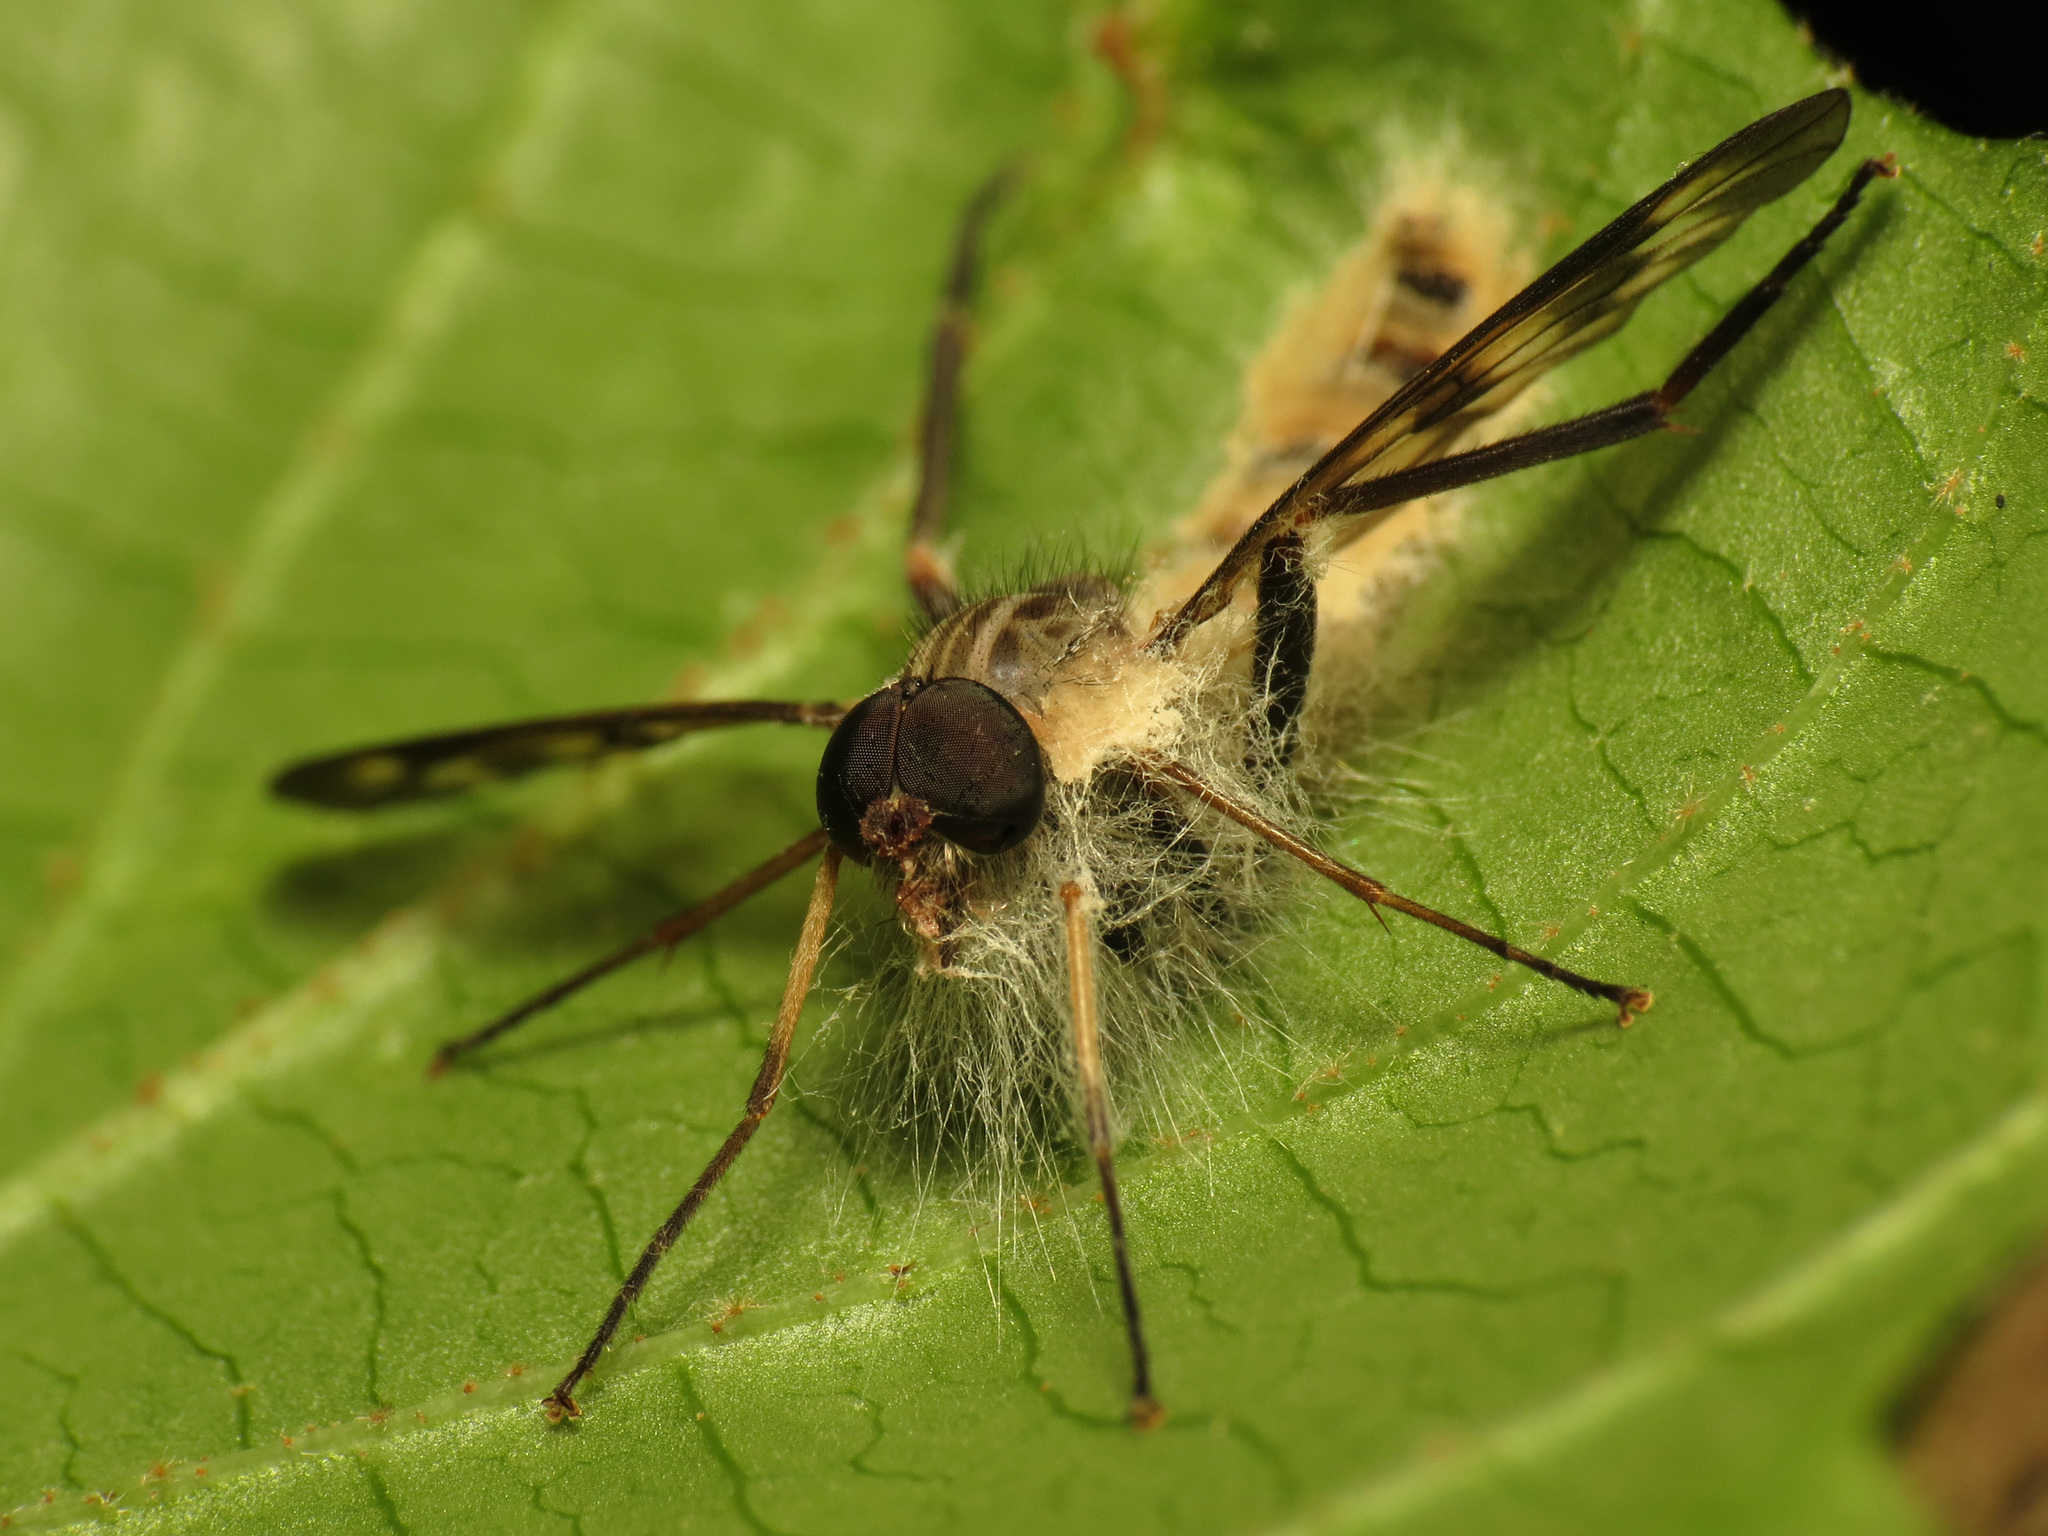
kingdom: Fungi
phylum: Entomophthoromycota
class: Entomophthoromycetes
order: Entomophthorales
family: Entomophthoraceae
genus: Furia
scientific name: Furia ithacensis
